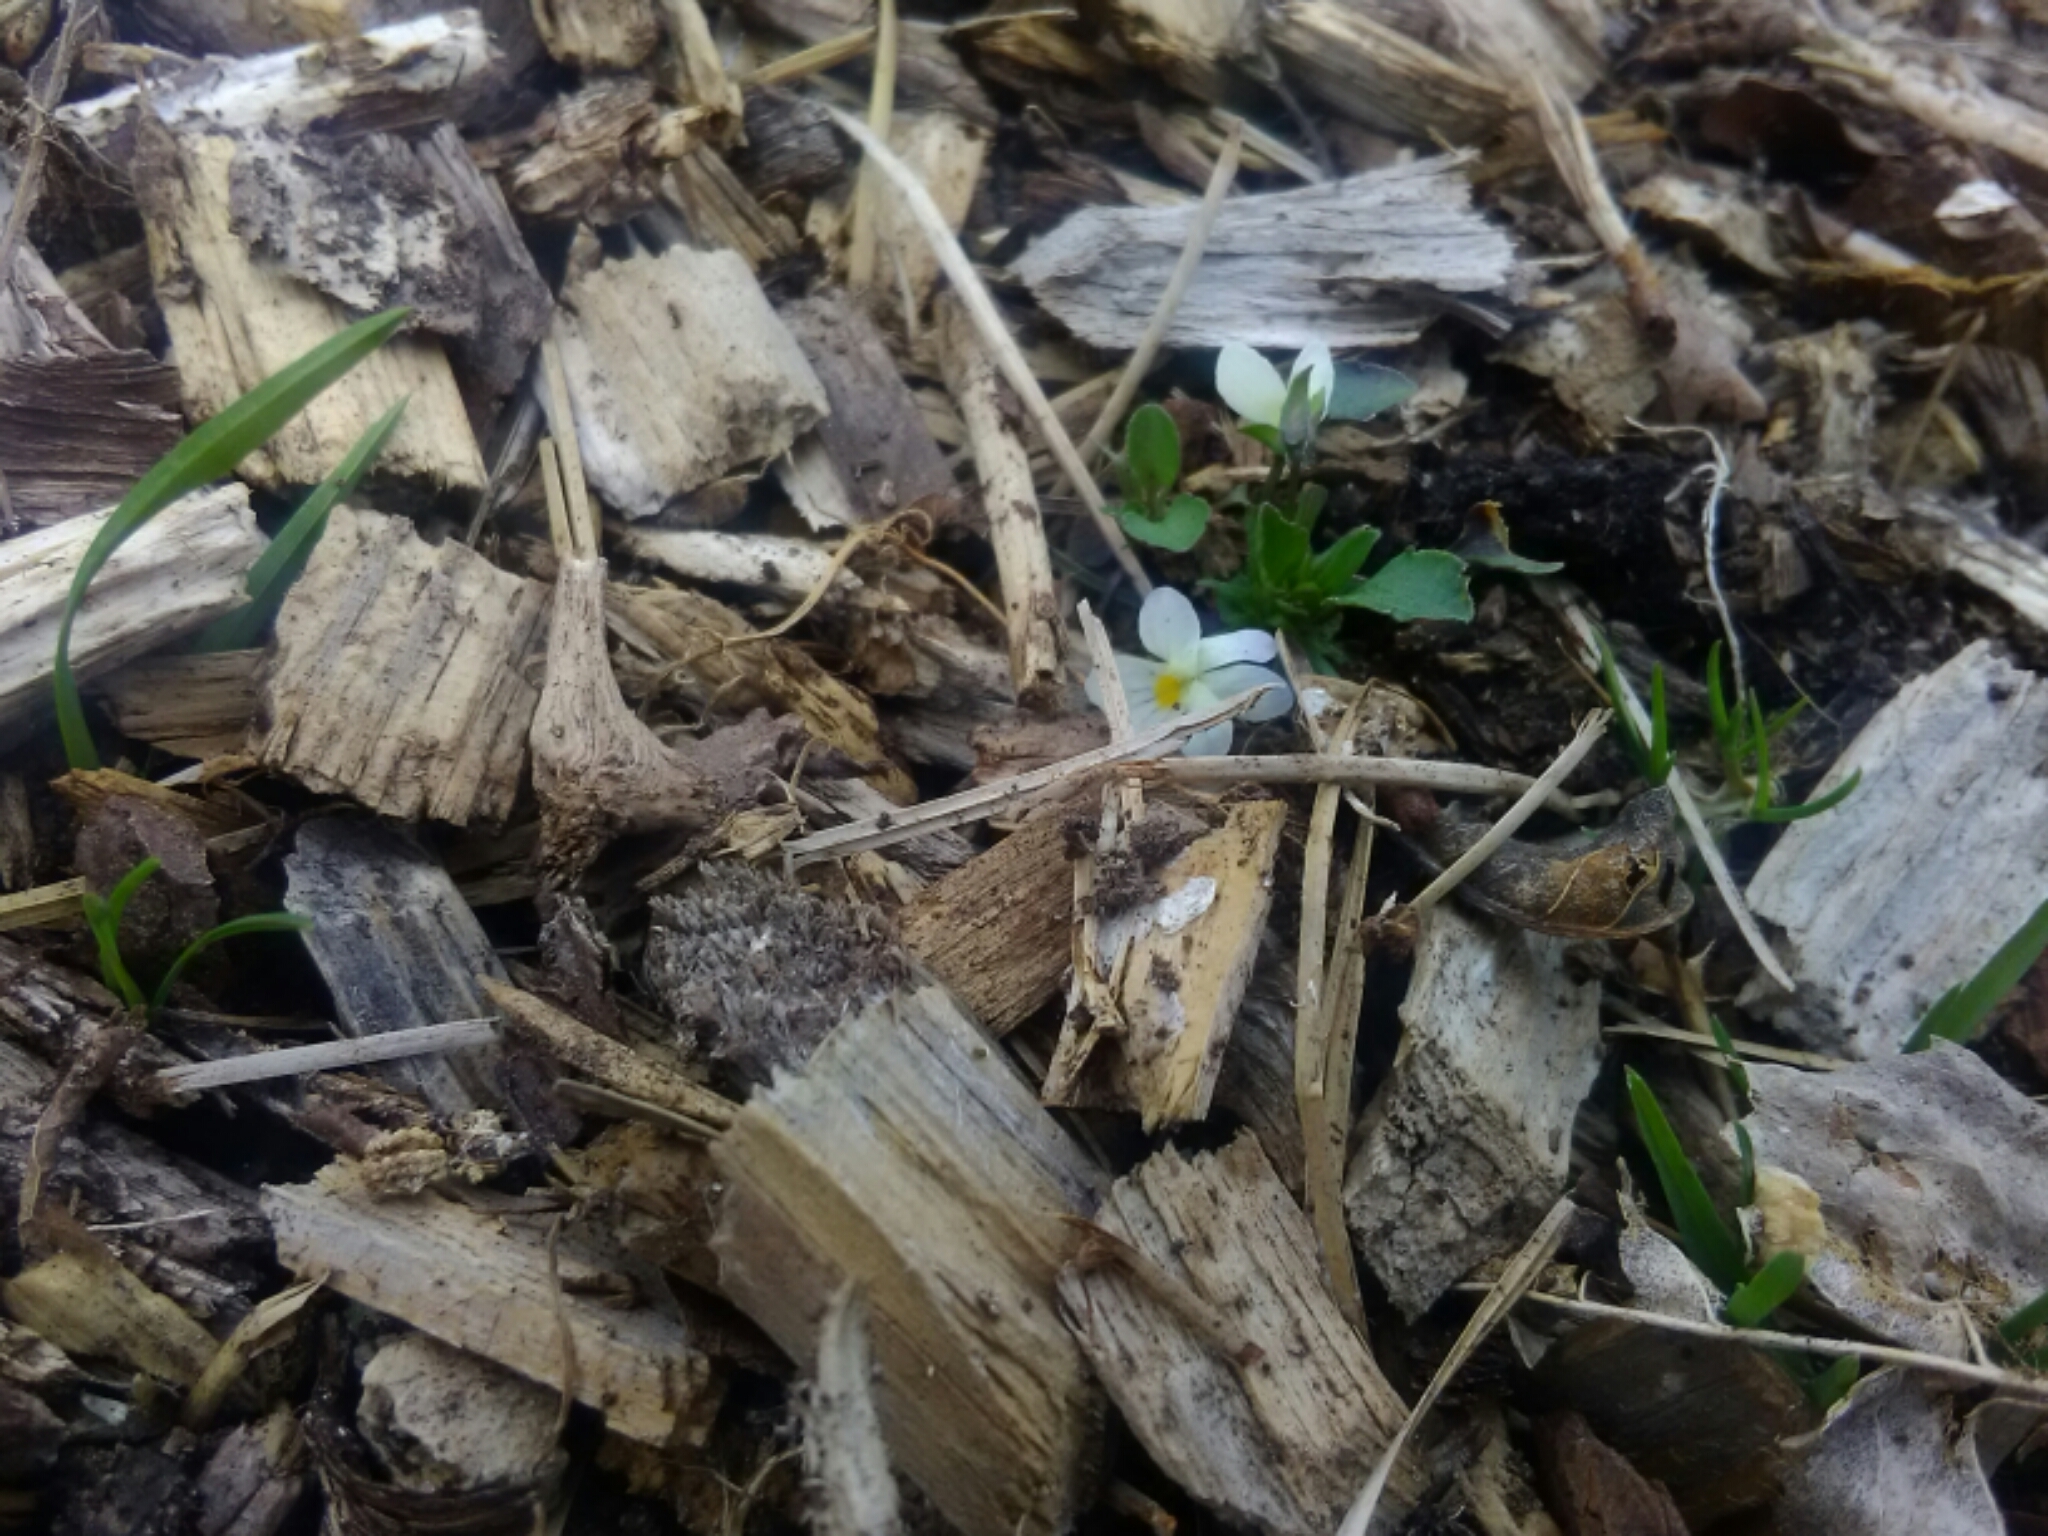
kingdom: Plantae
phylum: Tracheophyta
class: Magnoliopsida
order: Malpighiales
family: Violaceae
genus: Viola
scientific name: Viola rafinesquei
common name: American field pansy
